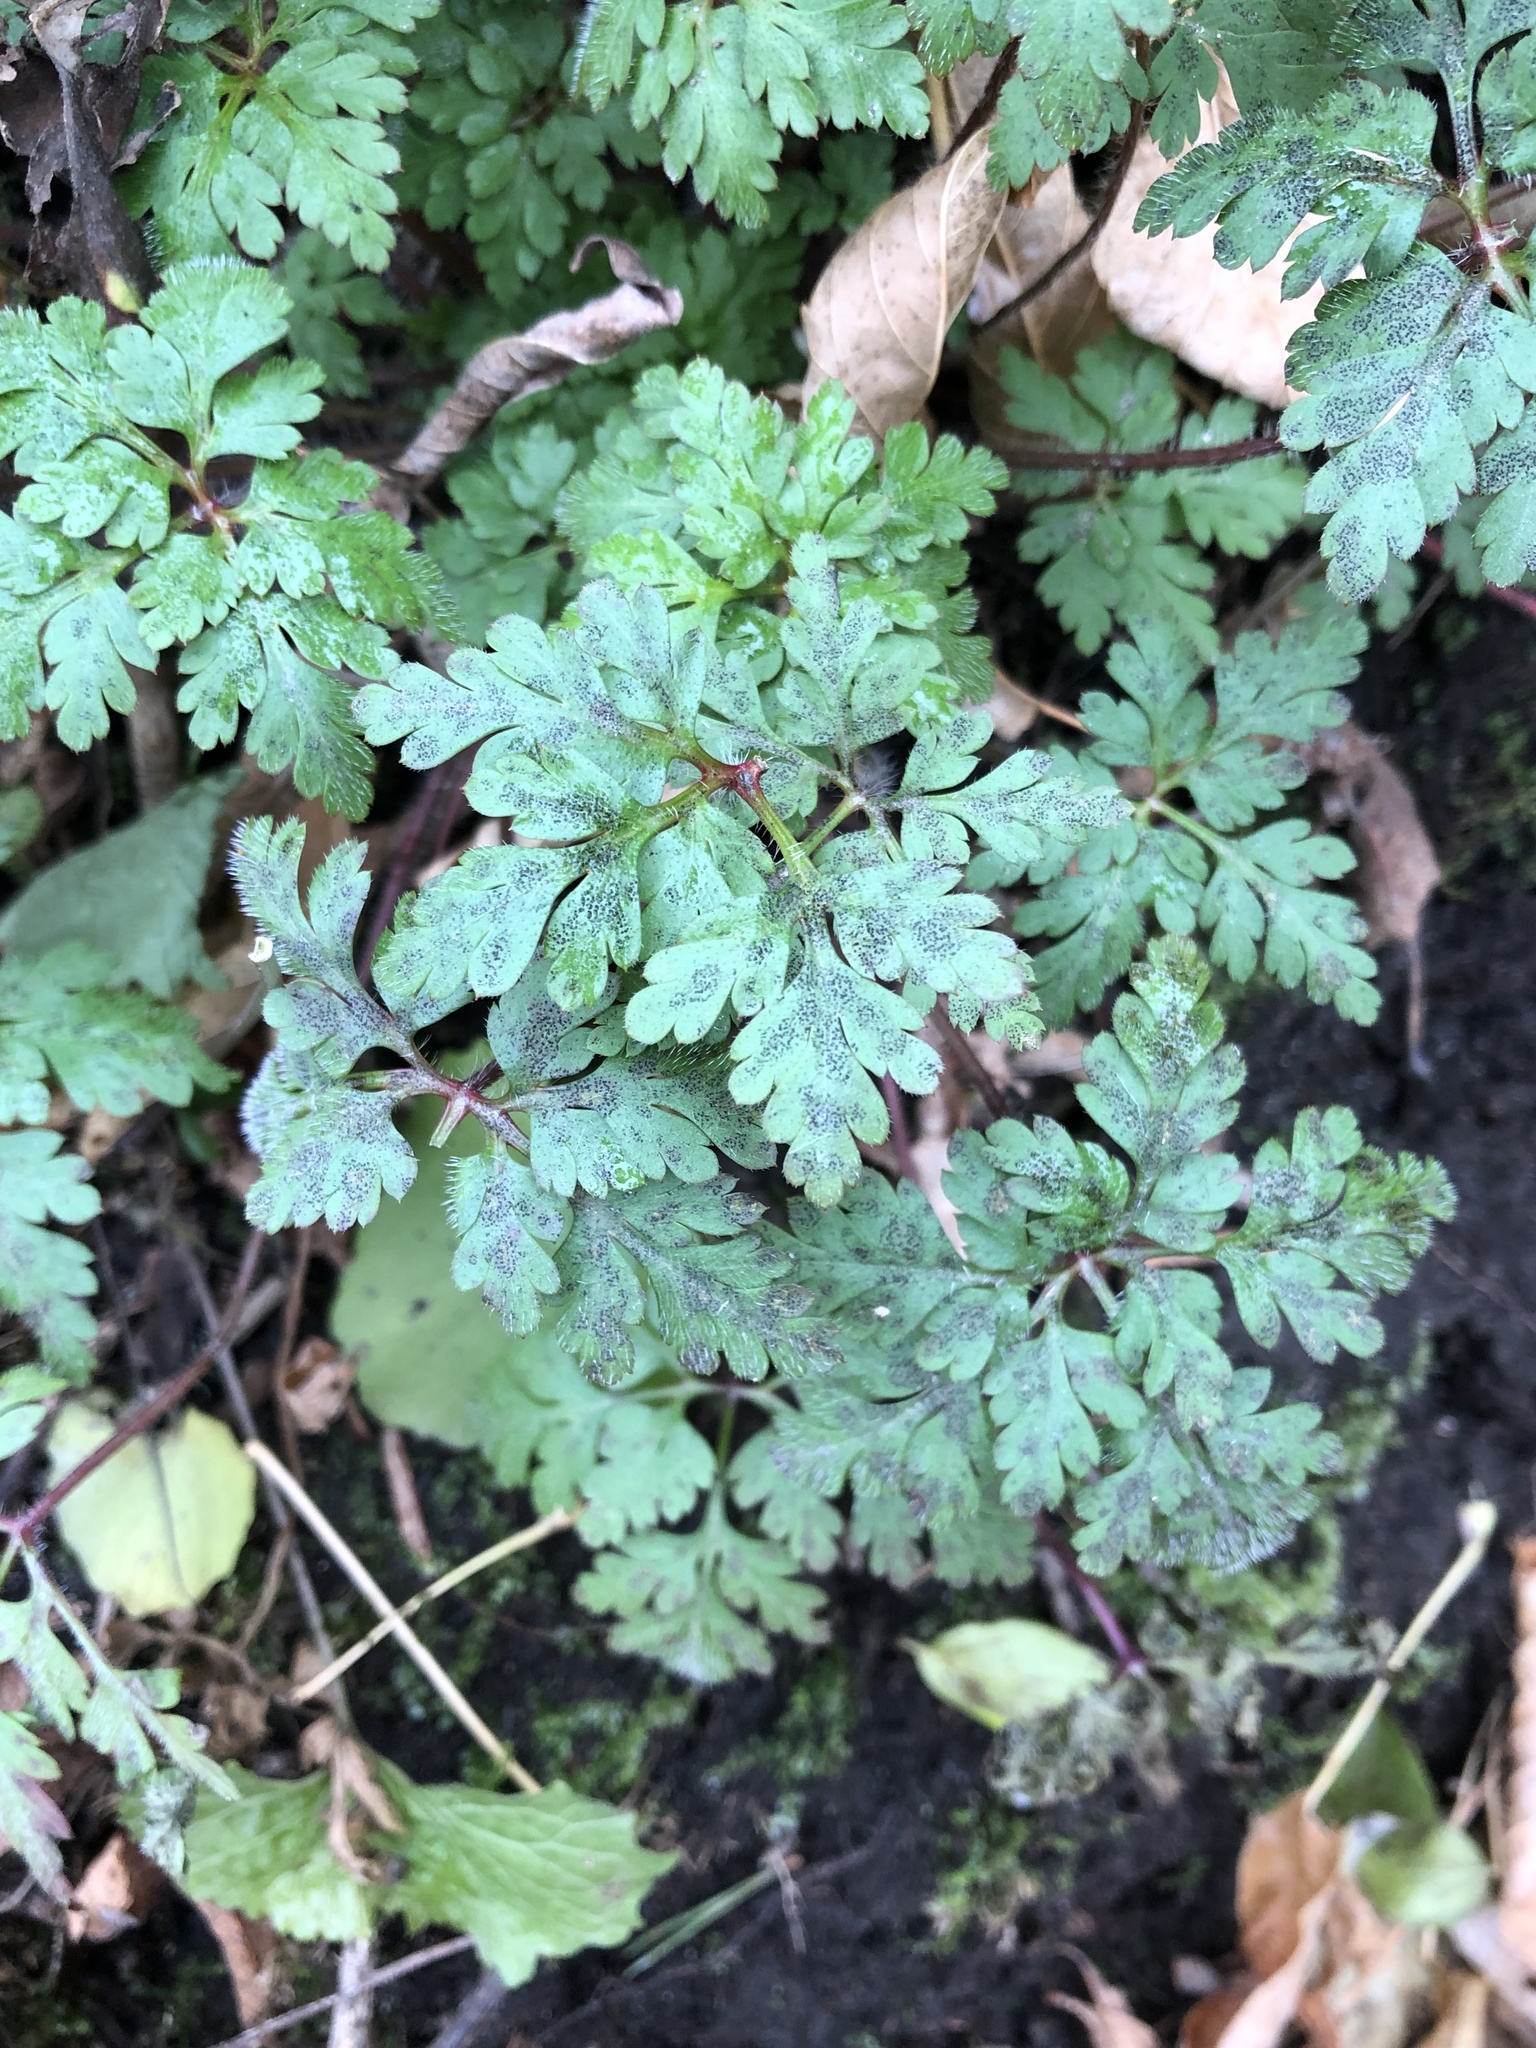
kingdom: Plantae
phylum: Tracheophyta
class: Magnoliopsida
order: Geraniales
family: Geraniaceae
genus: Geranium
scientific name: Geranium robertianum
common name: Herb-robert
